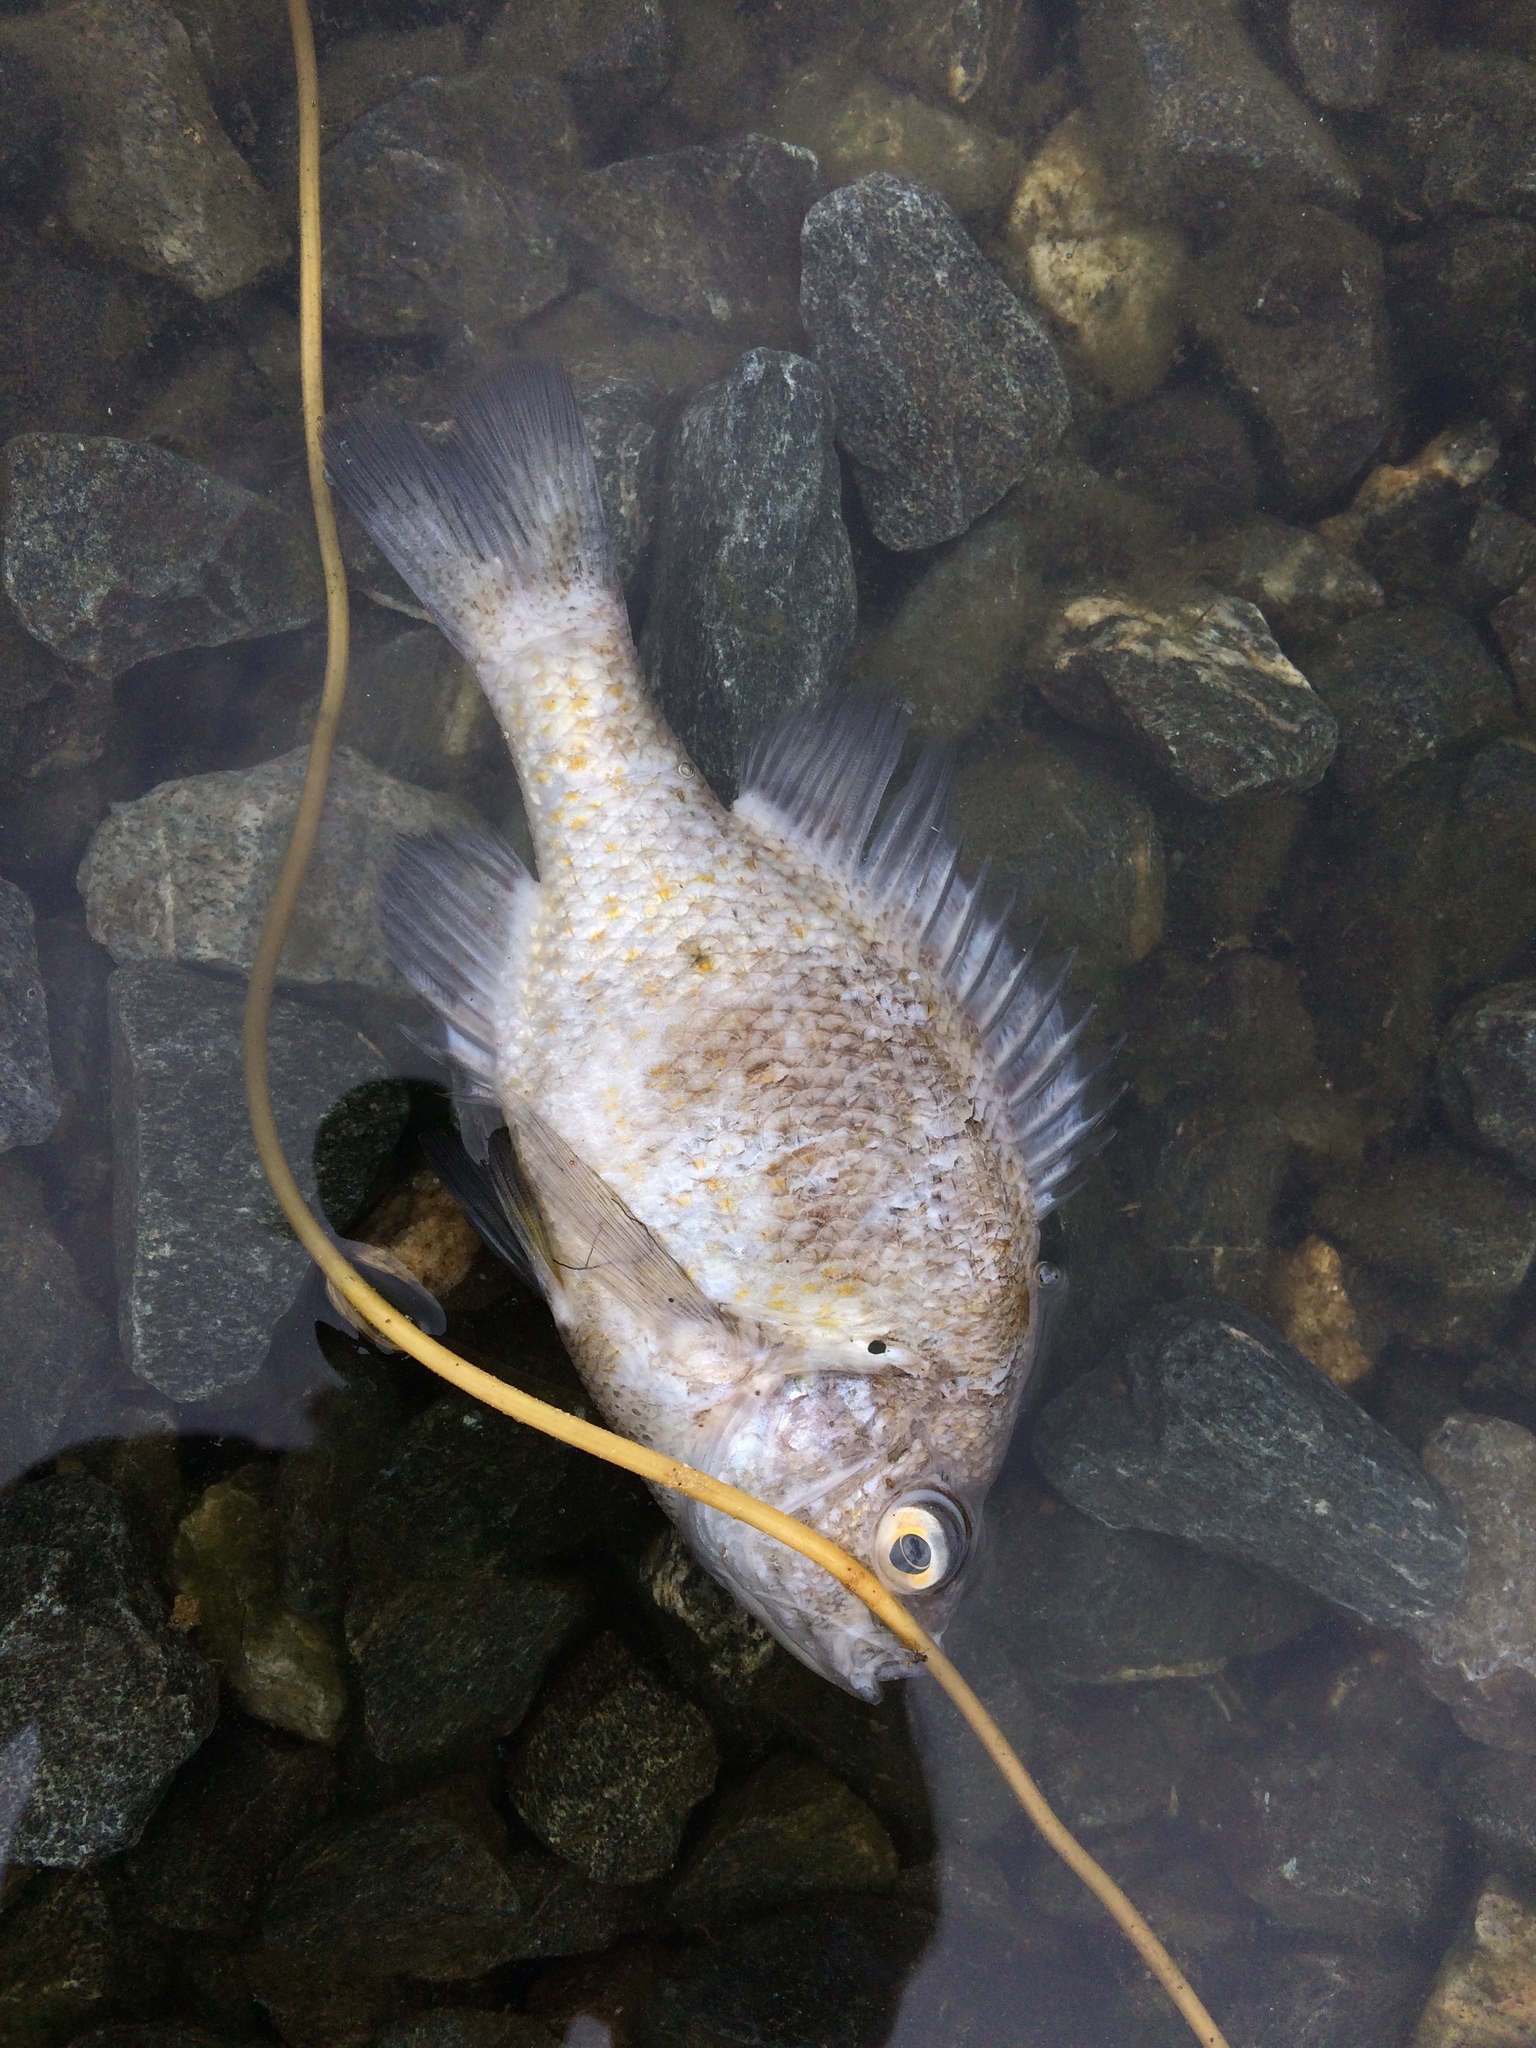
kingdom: Animalia
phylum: Chordata
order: Perciformes
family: Centrarchidae
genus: Lepomis
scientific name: Lepomis
